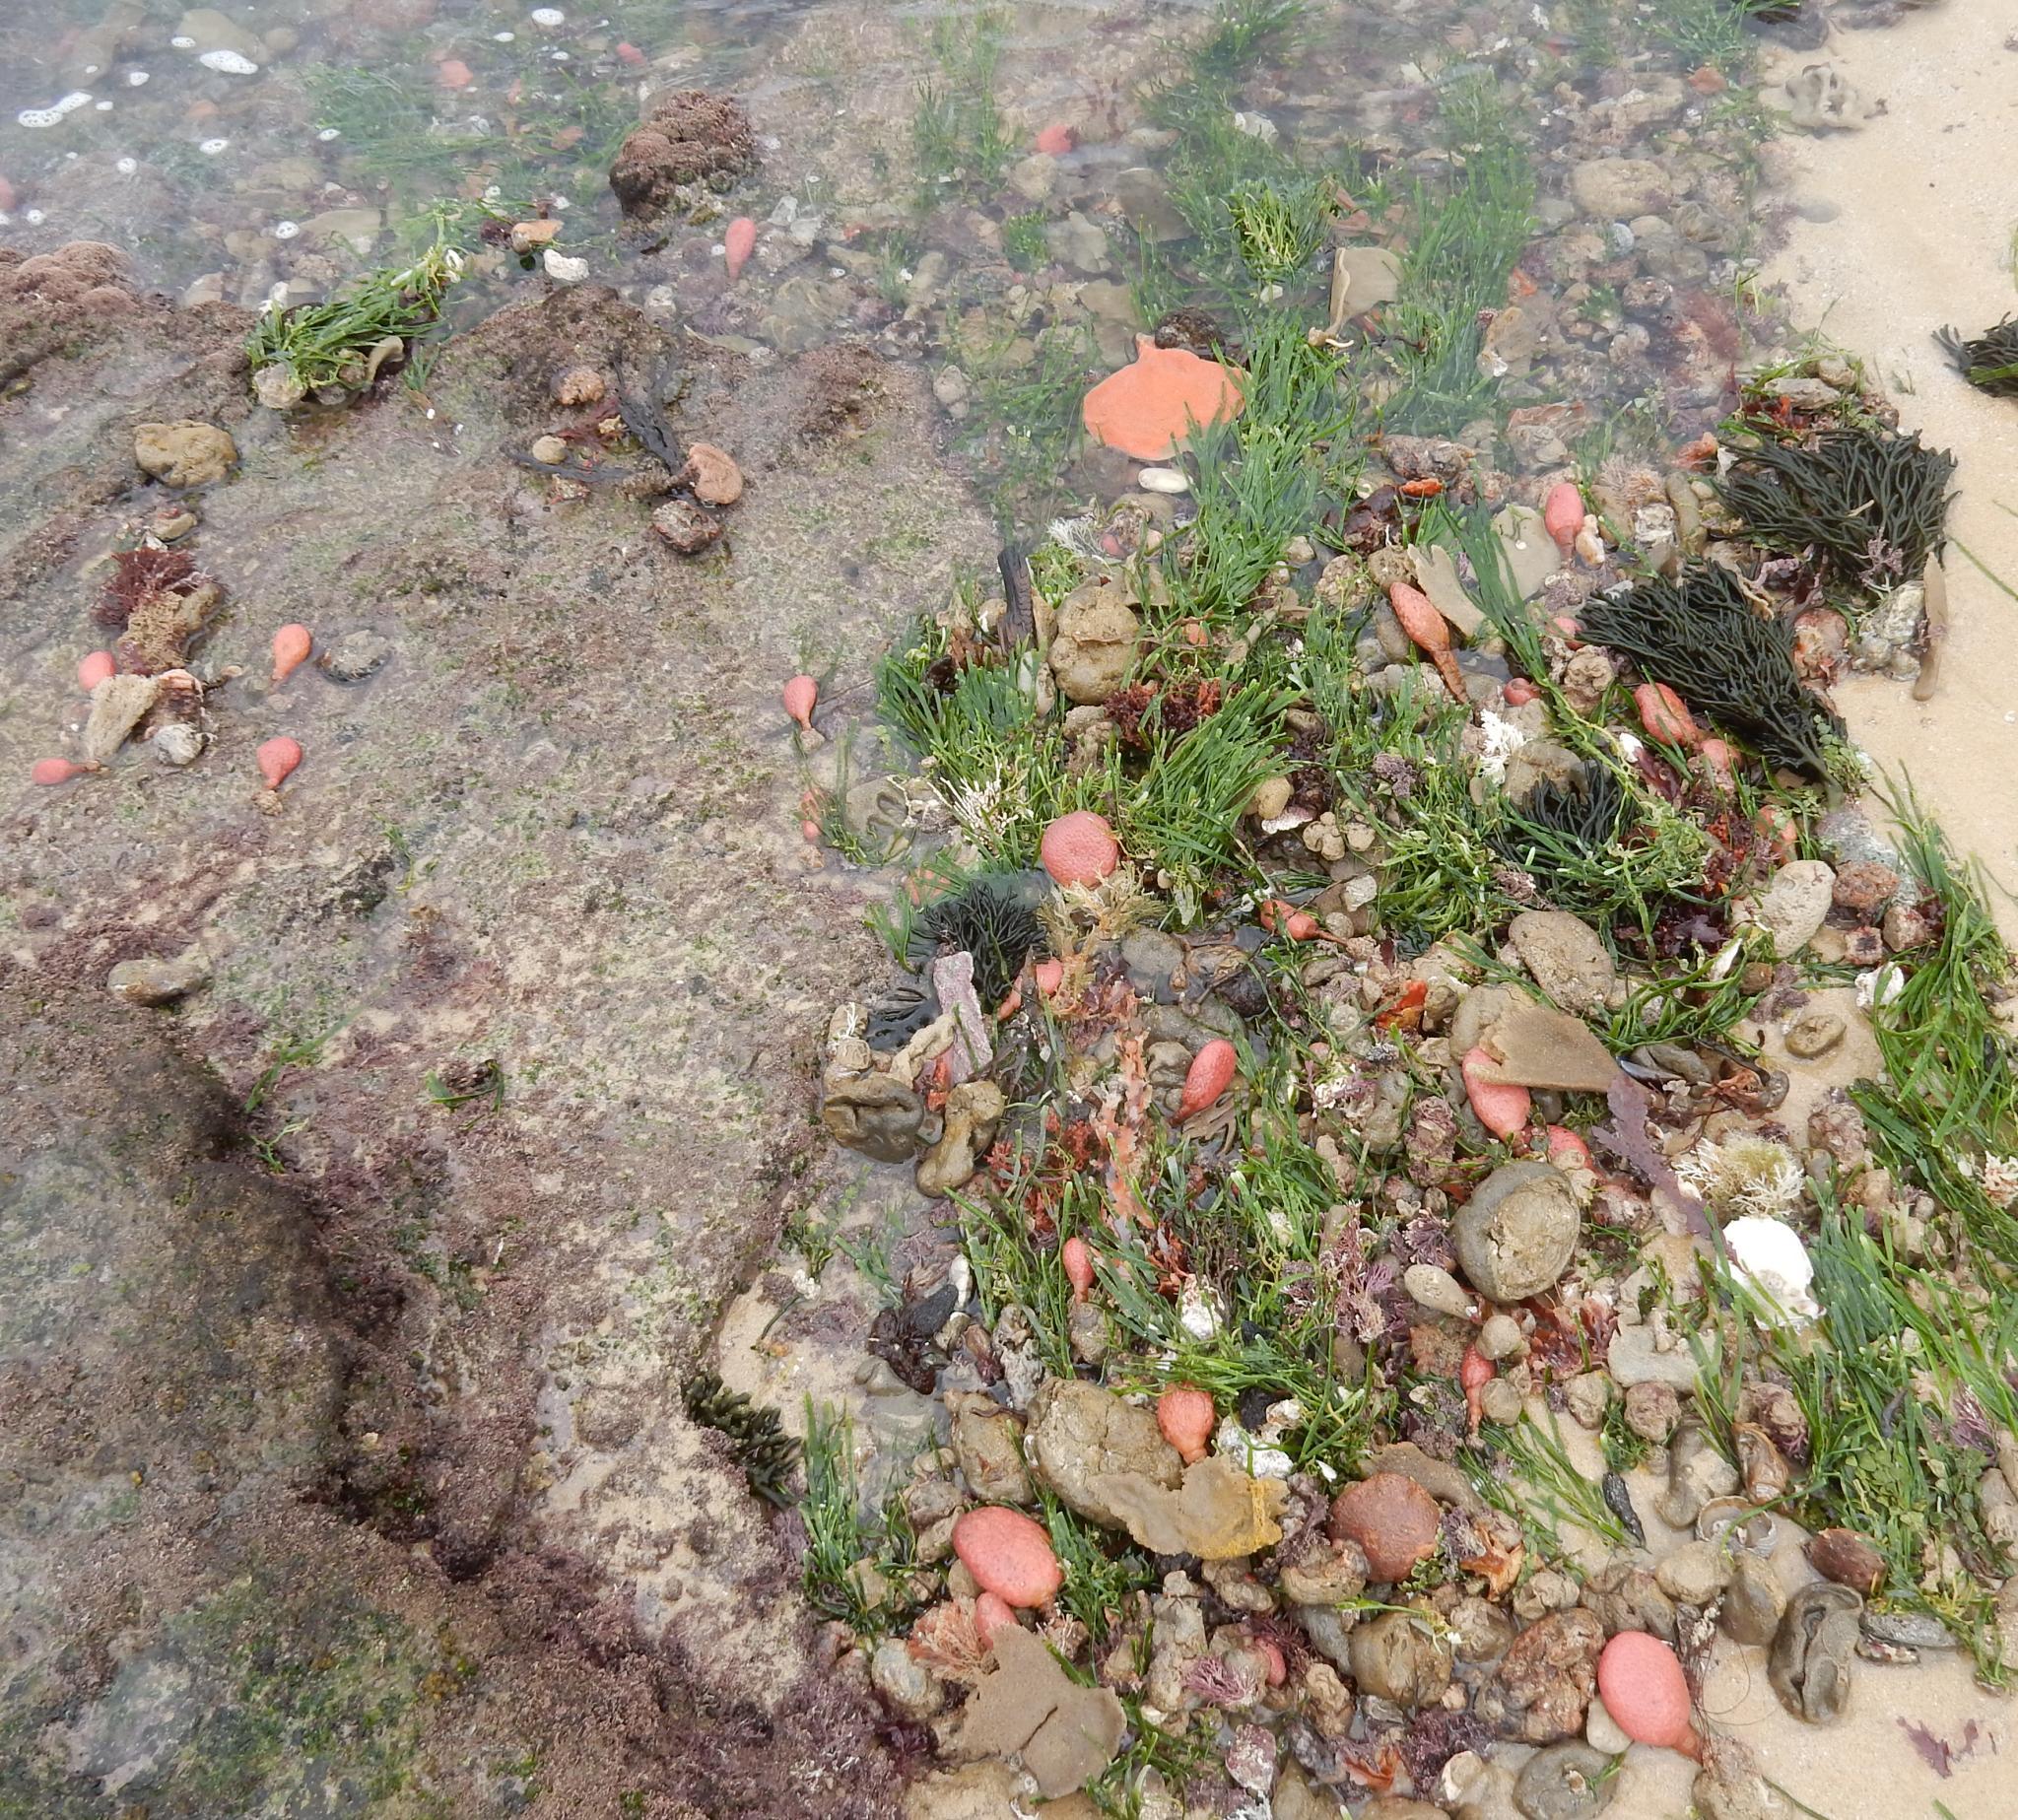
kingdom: Animalia
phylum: Chordata
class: Ascidiacea
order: Stolidobranchia
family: Styelidae
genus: Gynandrocarpa
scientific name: Gynandrocarpa placenta
